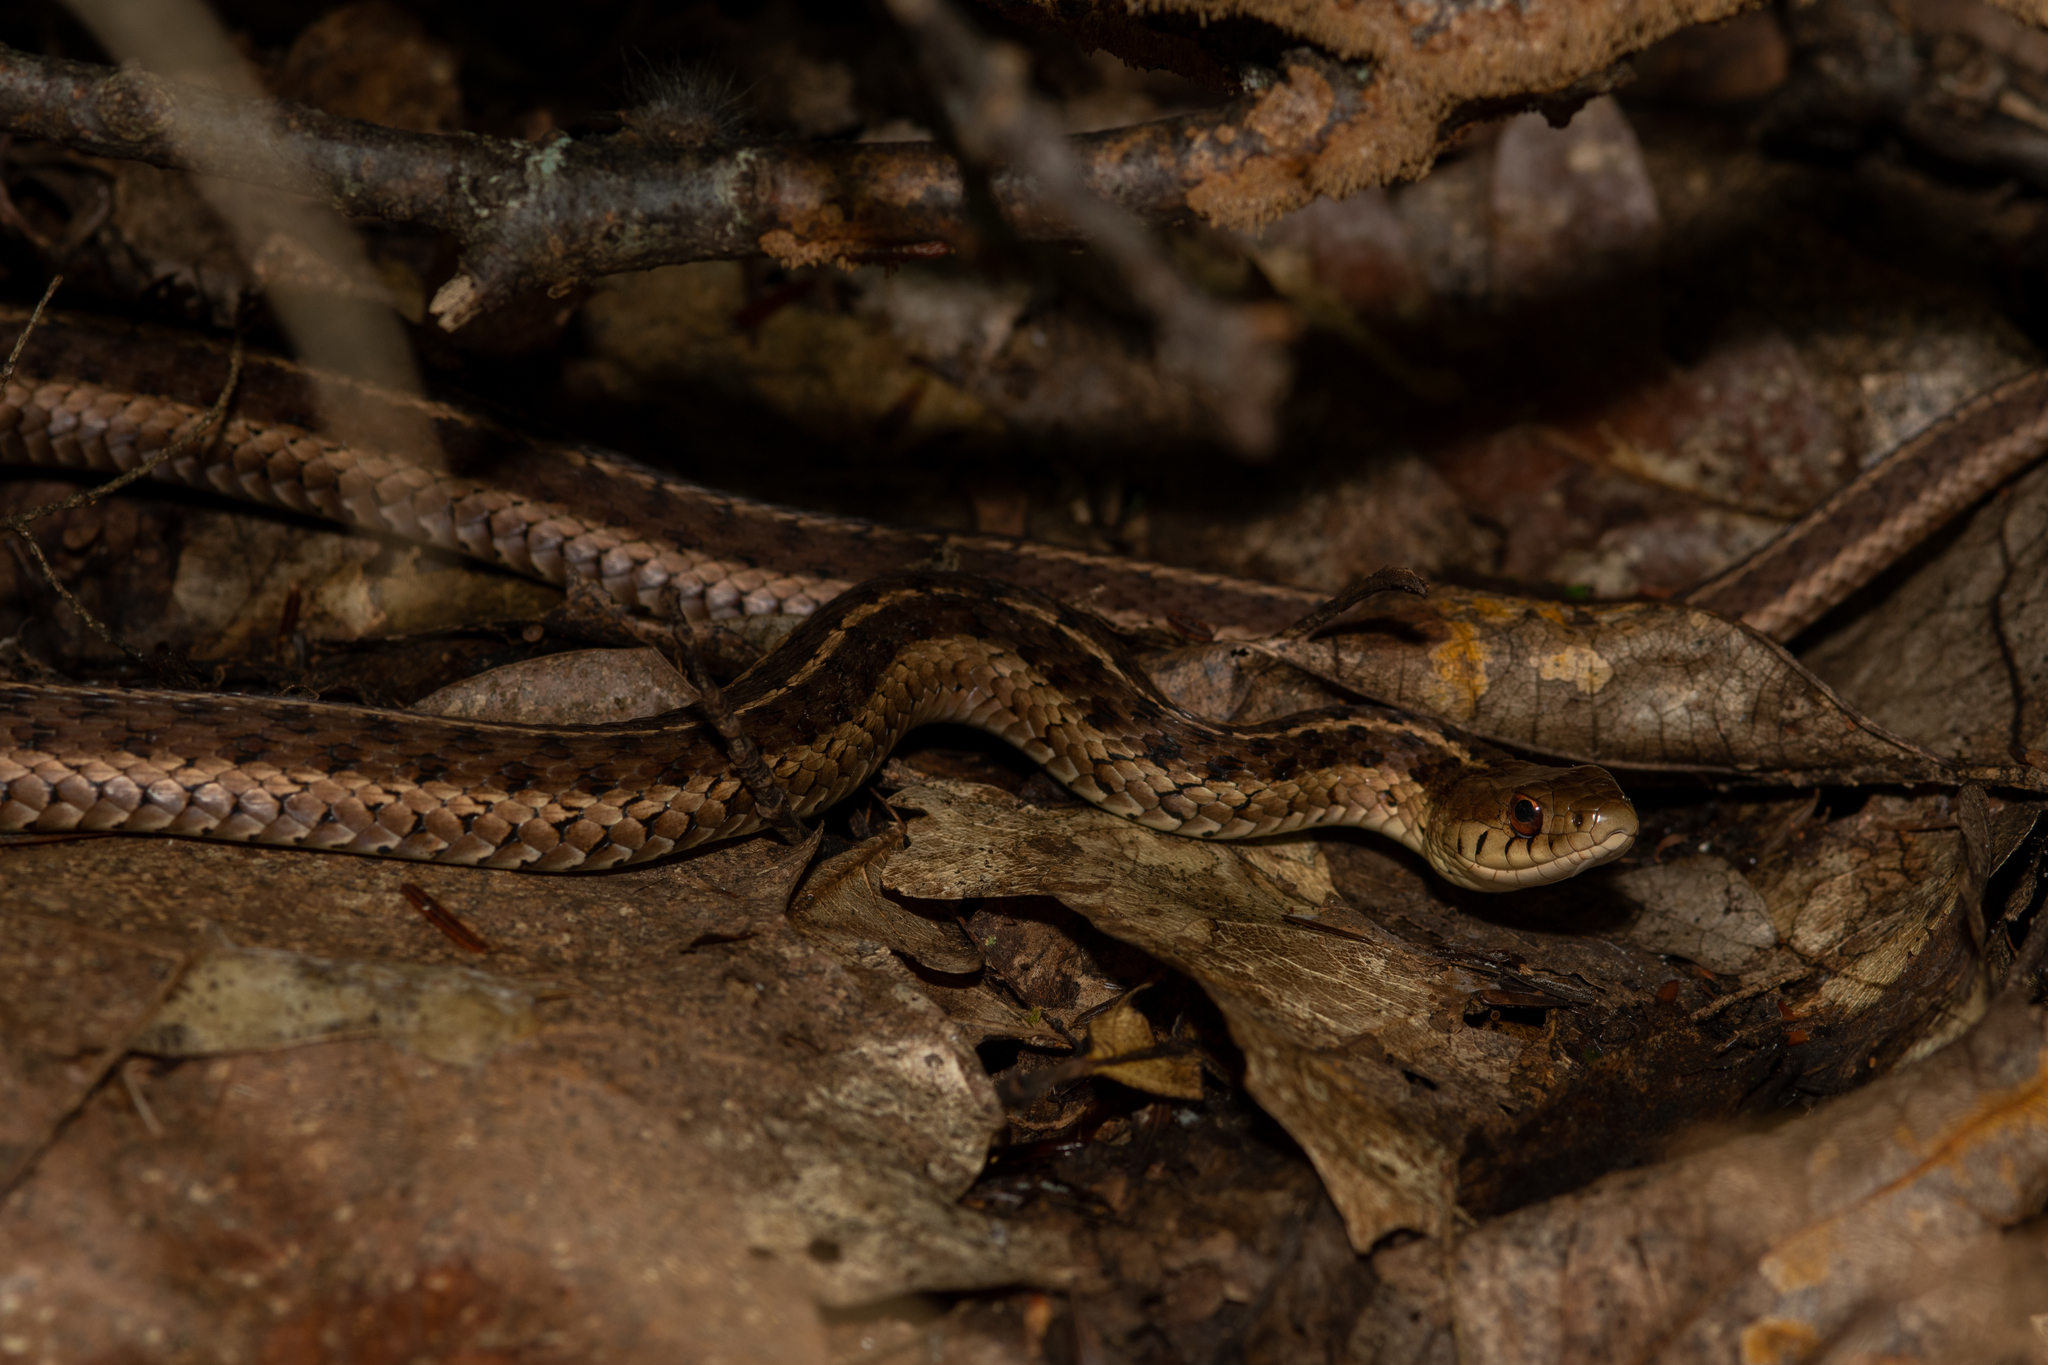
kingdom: Animalia
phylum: Chordata
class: Squamata
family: Colubridae
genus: Thamnophis
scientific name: Thamnophis sirtalis
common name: Common garter snake
